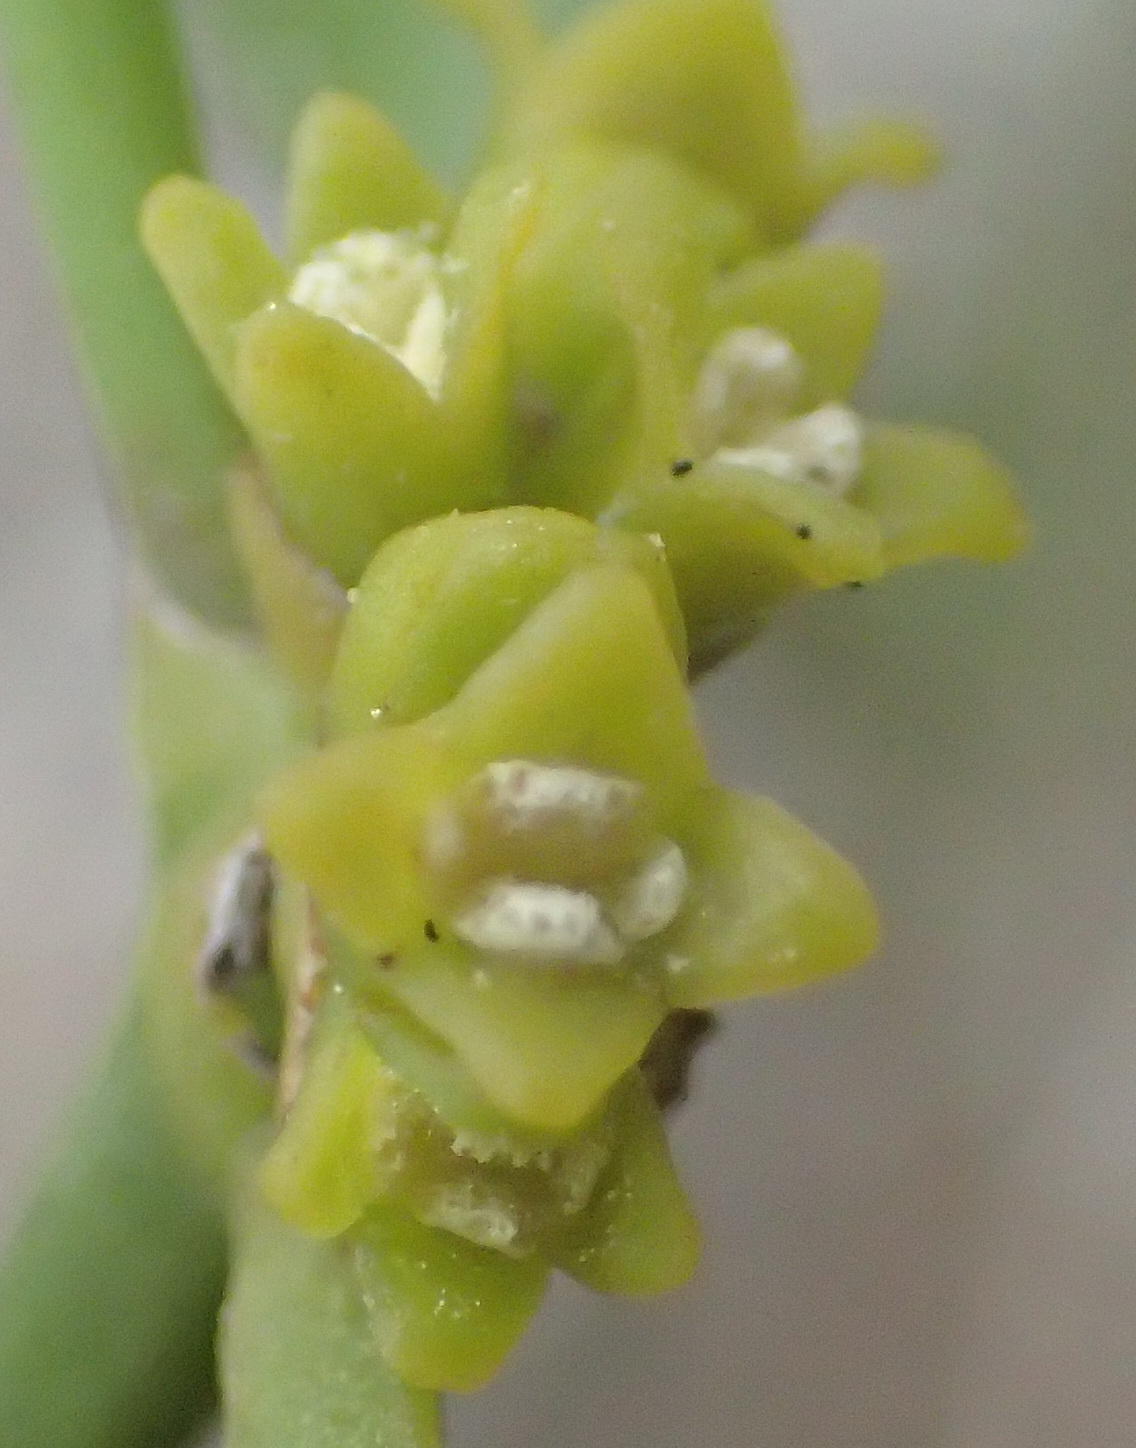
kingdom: Plantae
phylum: Tracheophyta
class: Magnoliopsida
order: Santalales
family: Viscaceae
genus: Viscum
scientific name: Viscum obscurum
